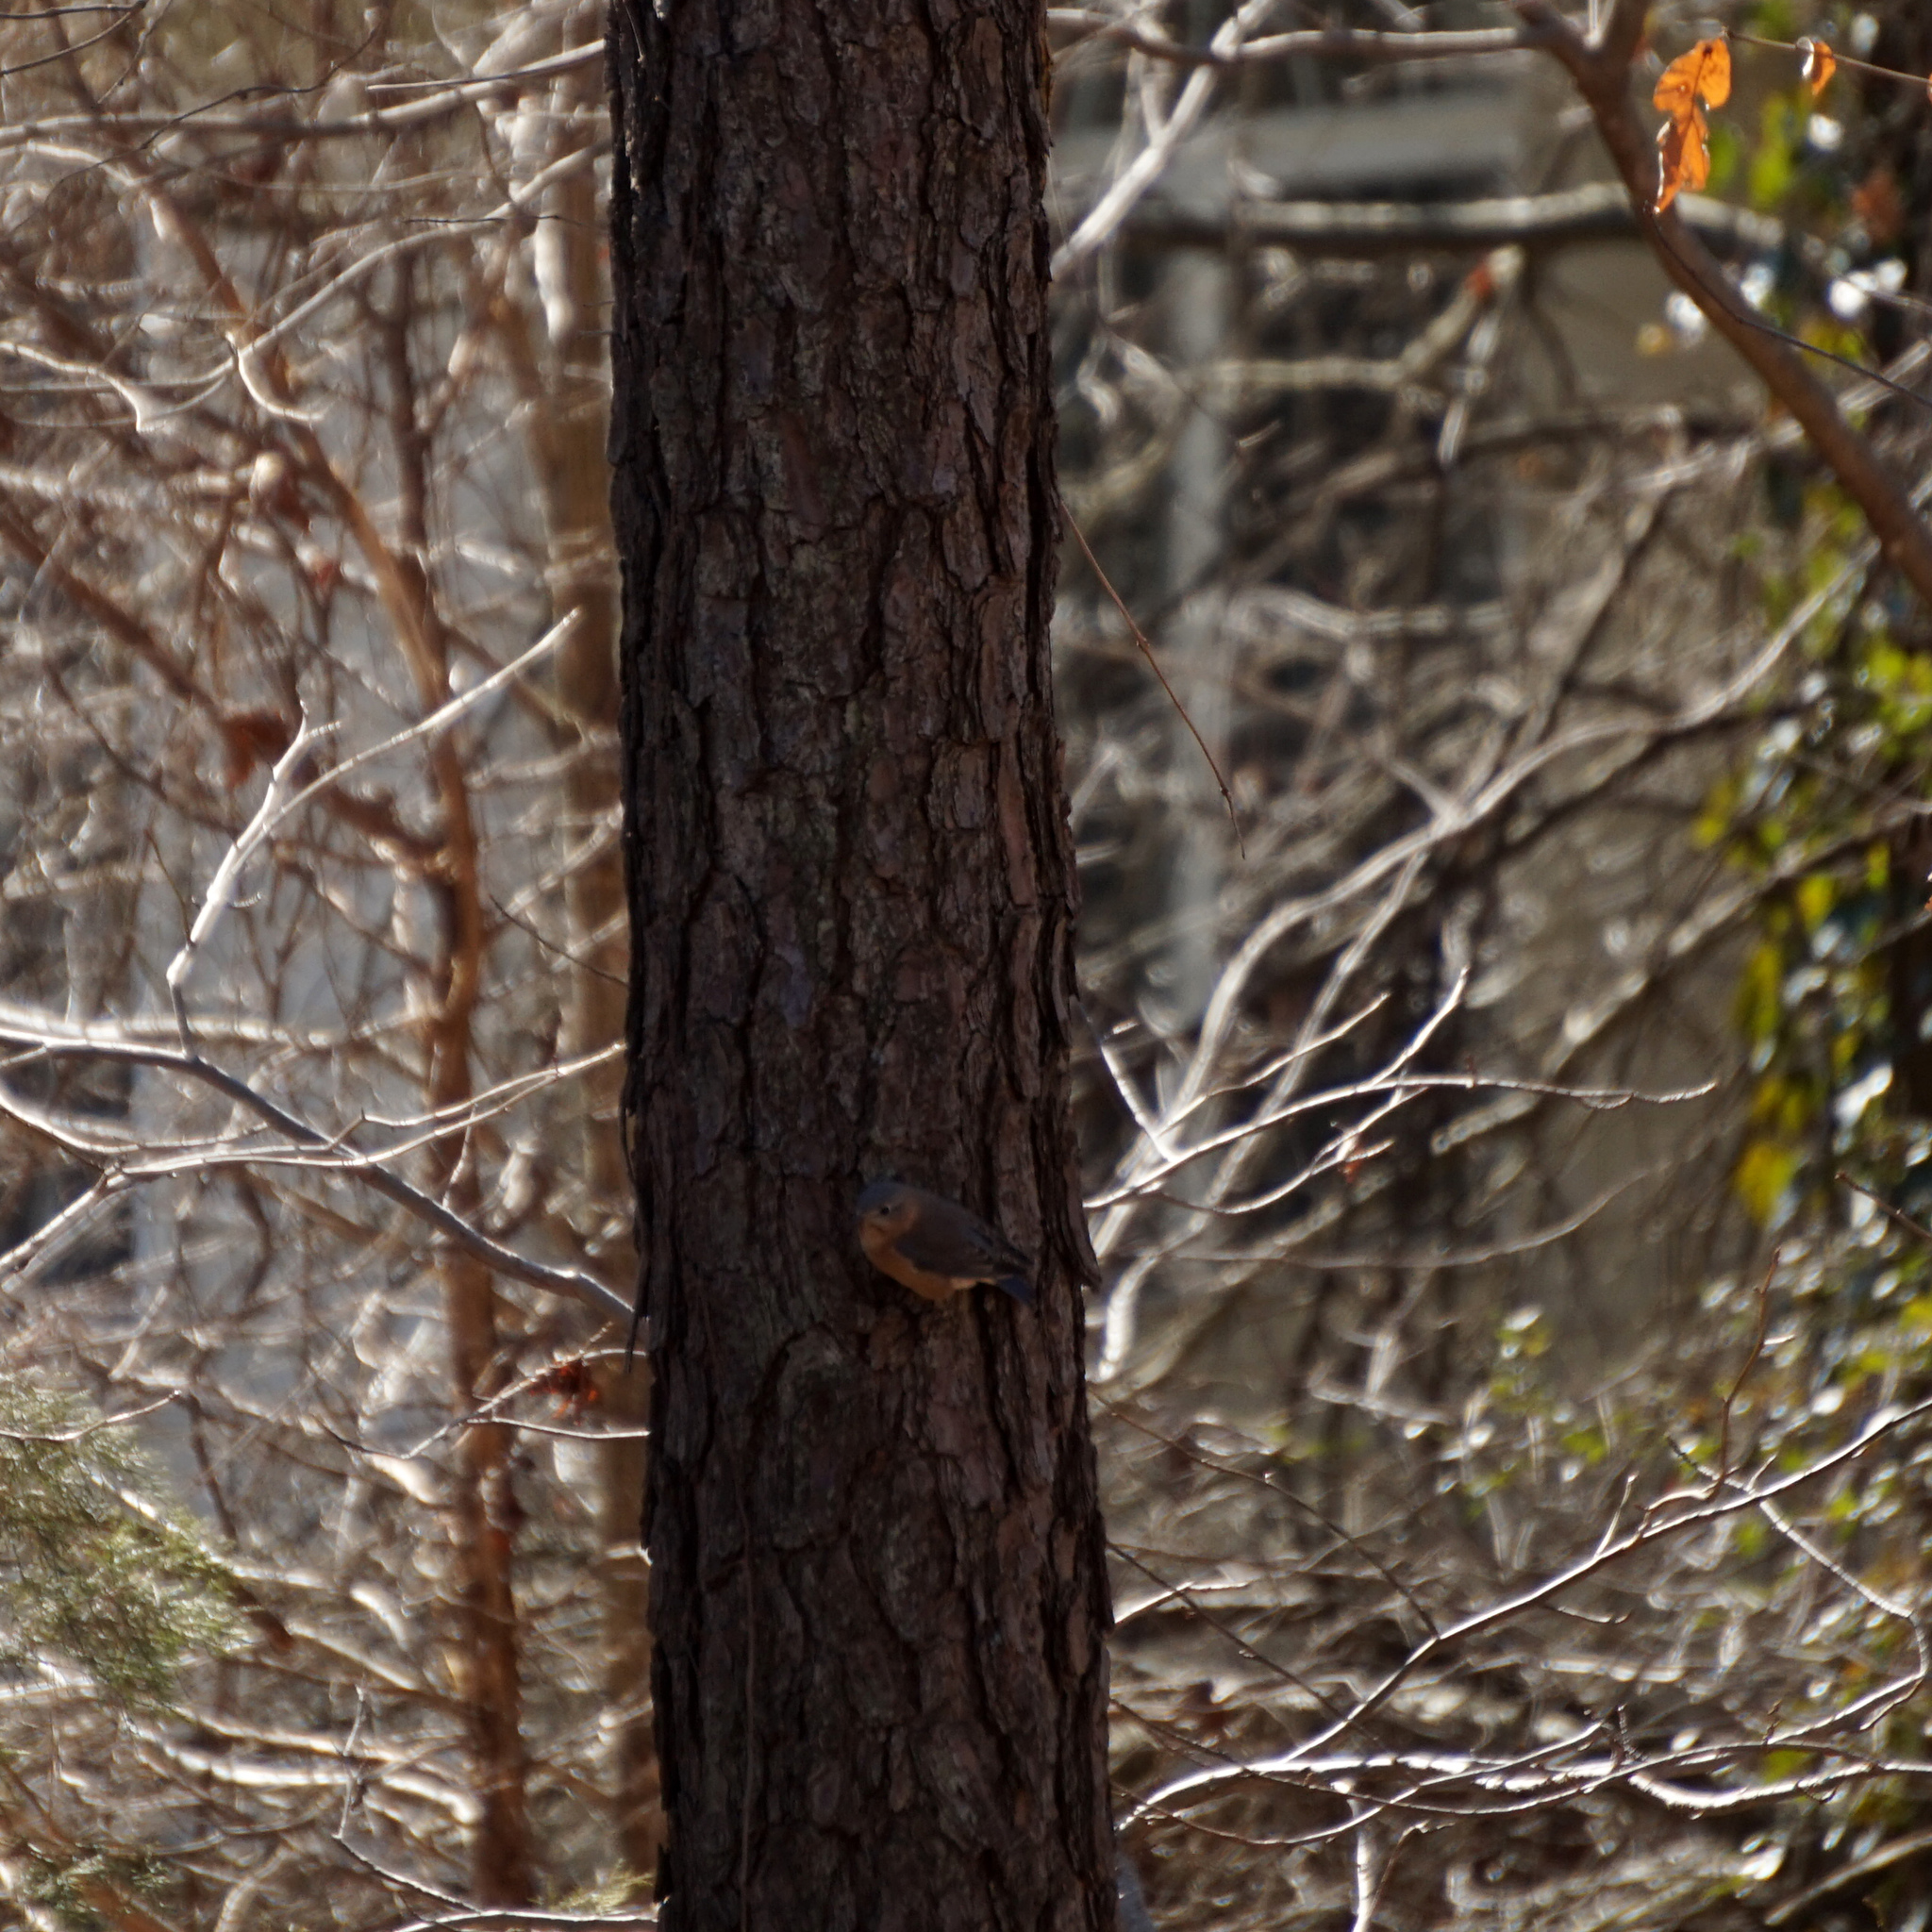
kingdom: Animalia
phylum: Chordata
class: Aves
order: Passeriformes
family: Turdidae
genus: Sialia
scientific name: Sialia sialis
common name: Eastern bluebird
